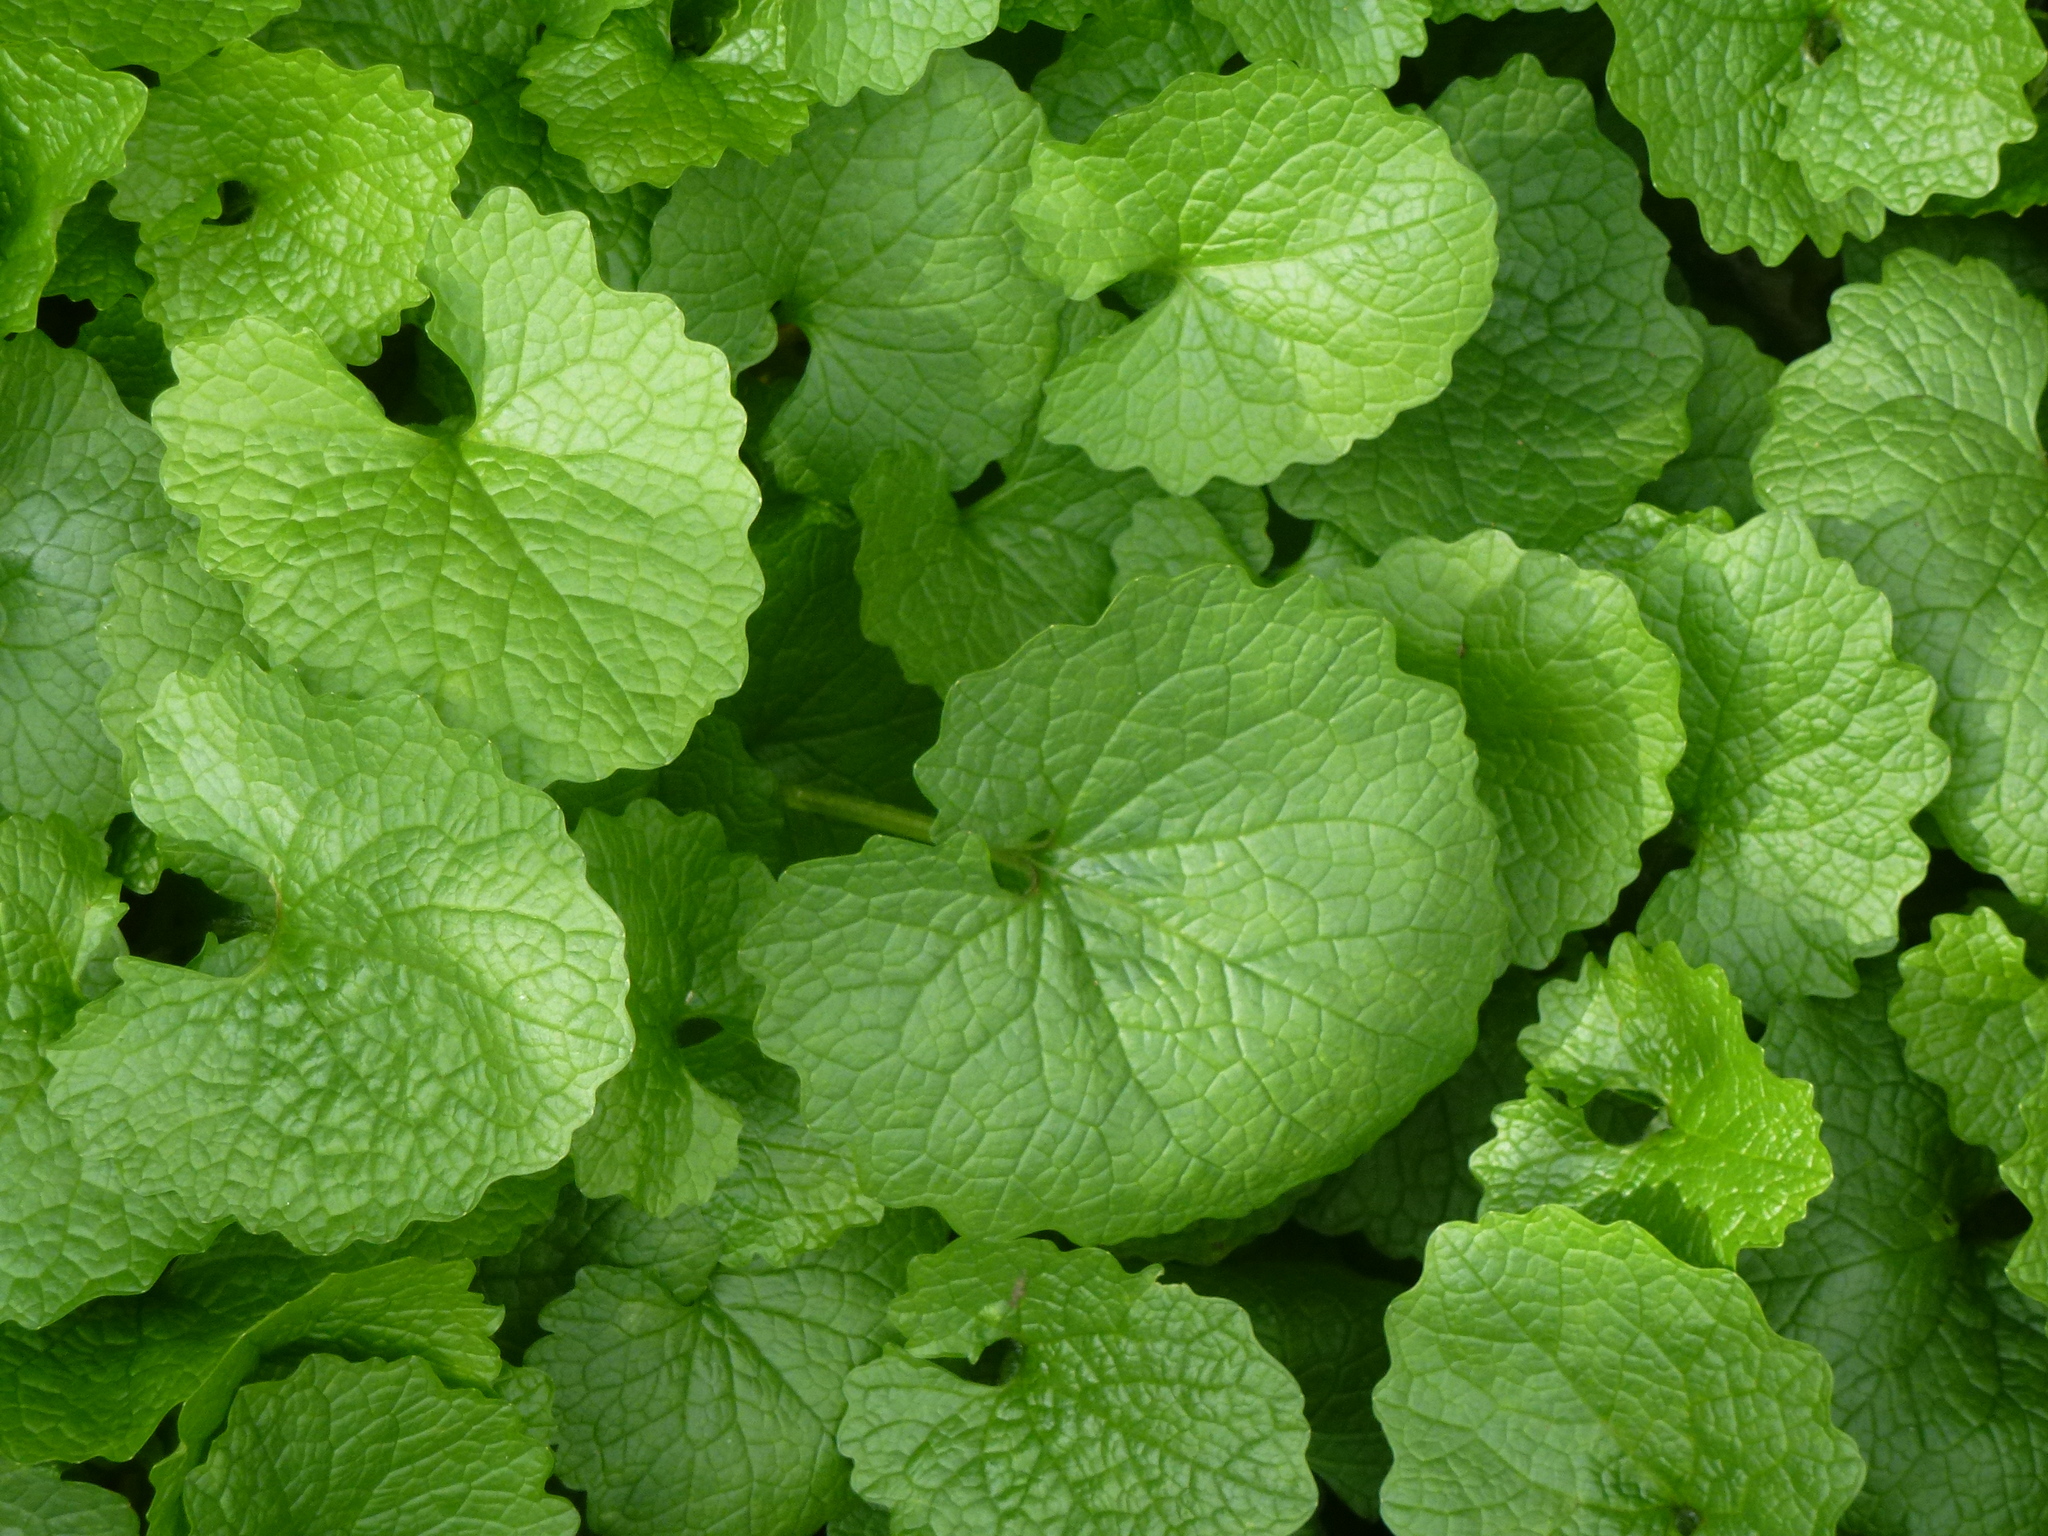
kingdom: Plantae
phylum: Tracheophyta
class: Magnoliopsida
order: Brassicales
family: Brassicaceae
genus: Alliaria
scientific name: Alliaria petiolata
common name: Garlic mustard
